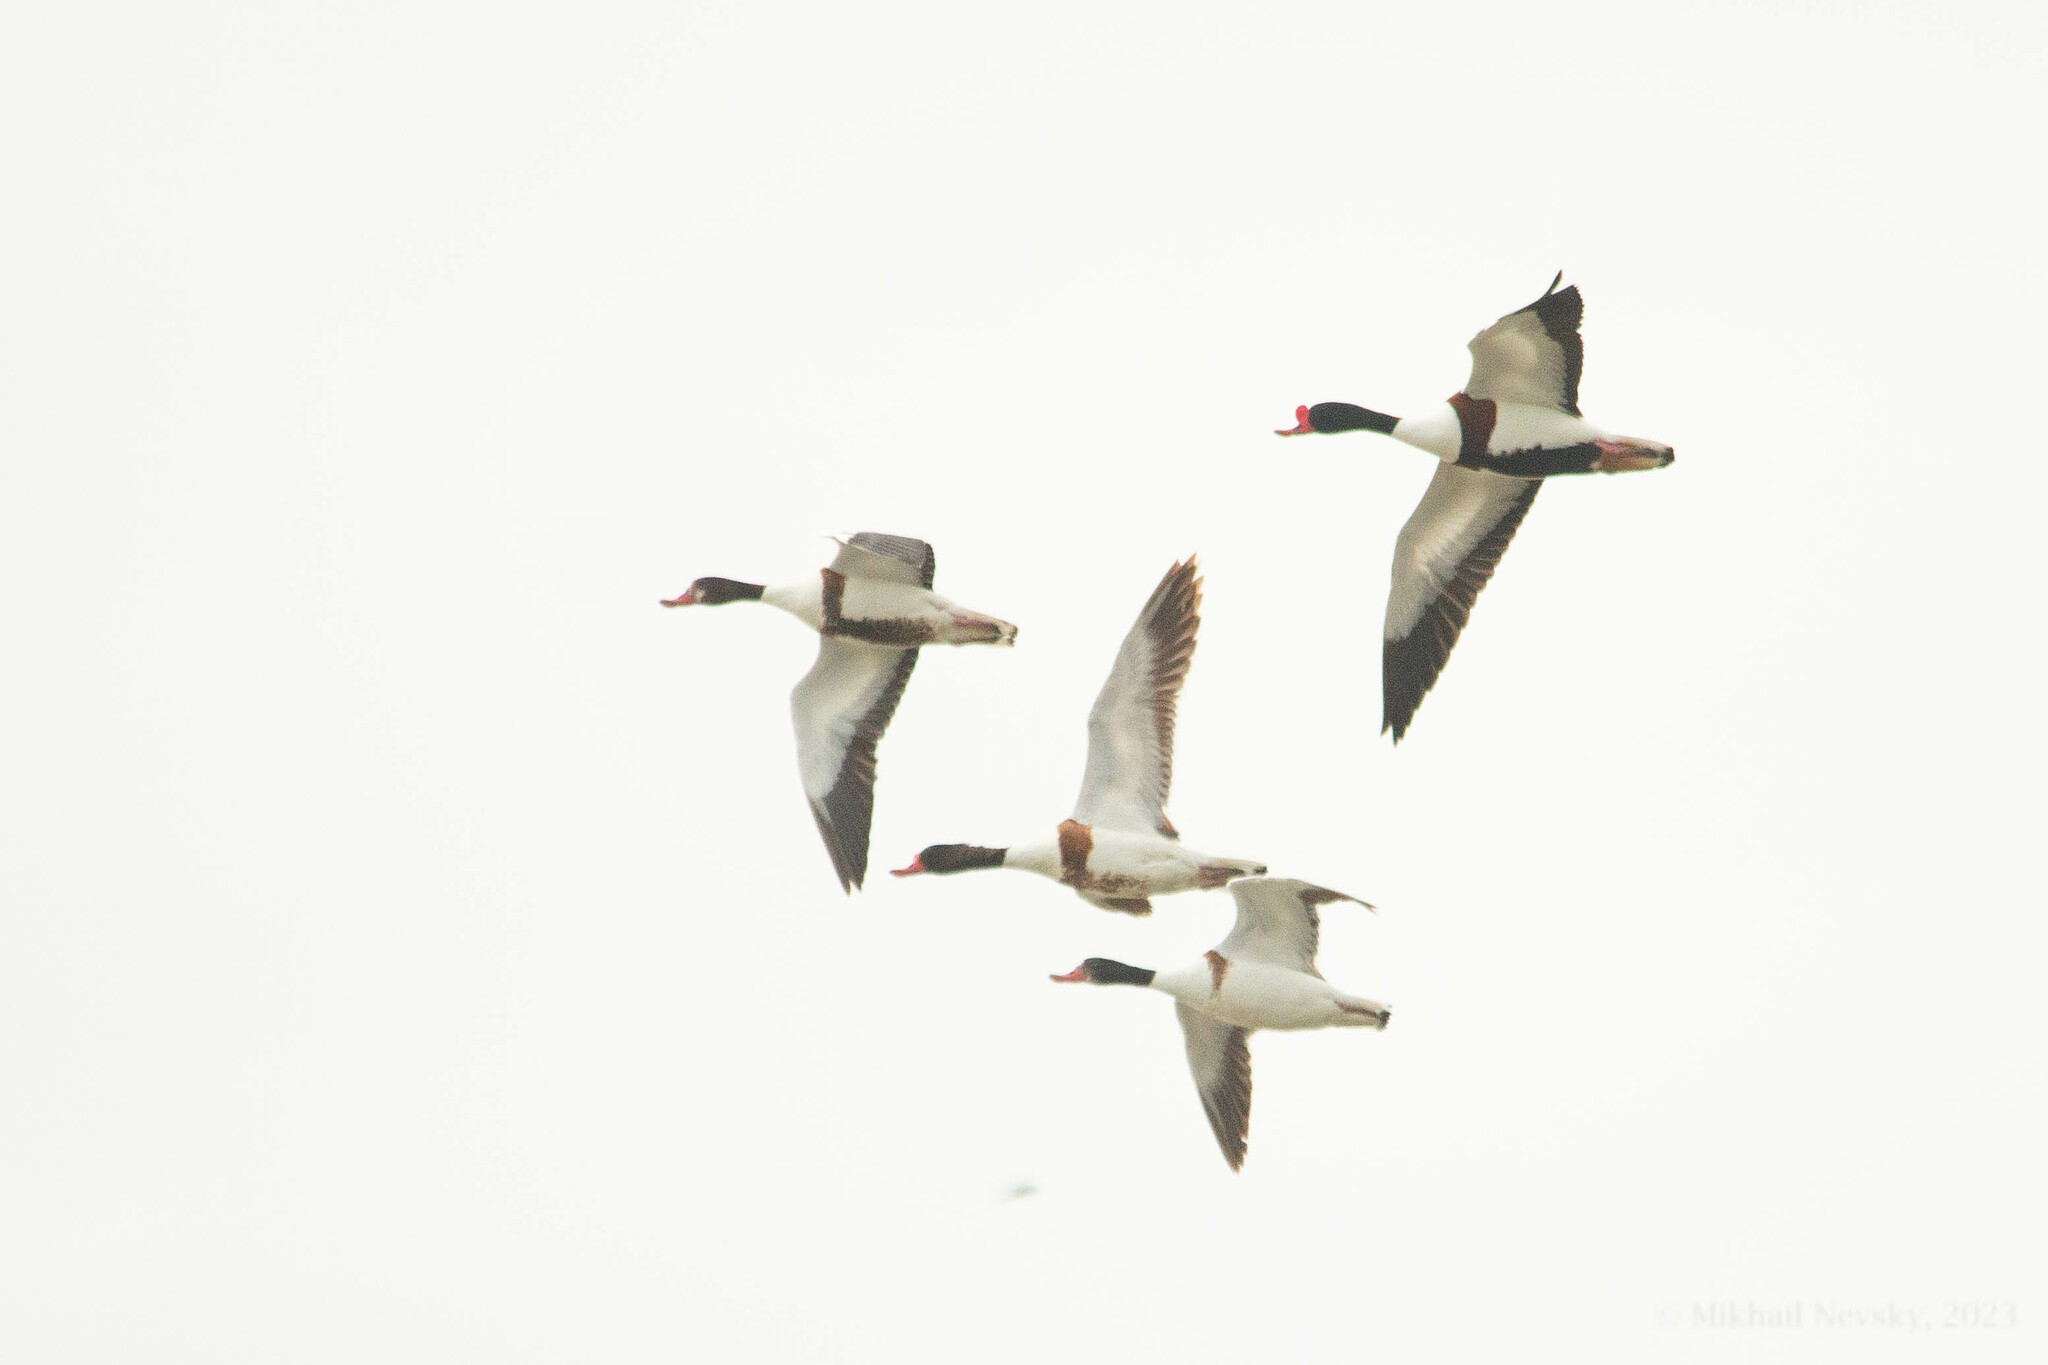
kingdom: Animalia
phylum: Chordata
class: Aves
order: Anseriformes
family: Anatidae
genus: Tadorna
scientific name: Tadorna tadorna
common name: Common shelduck
